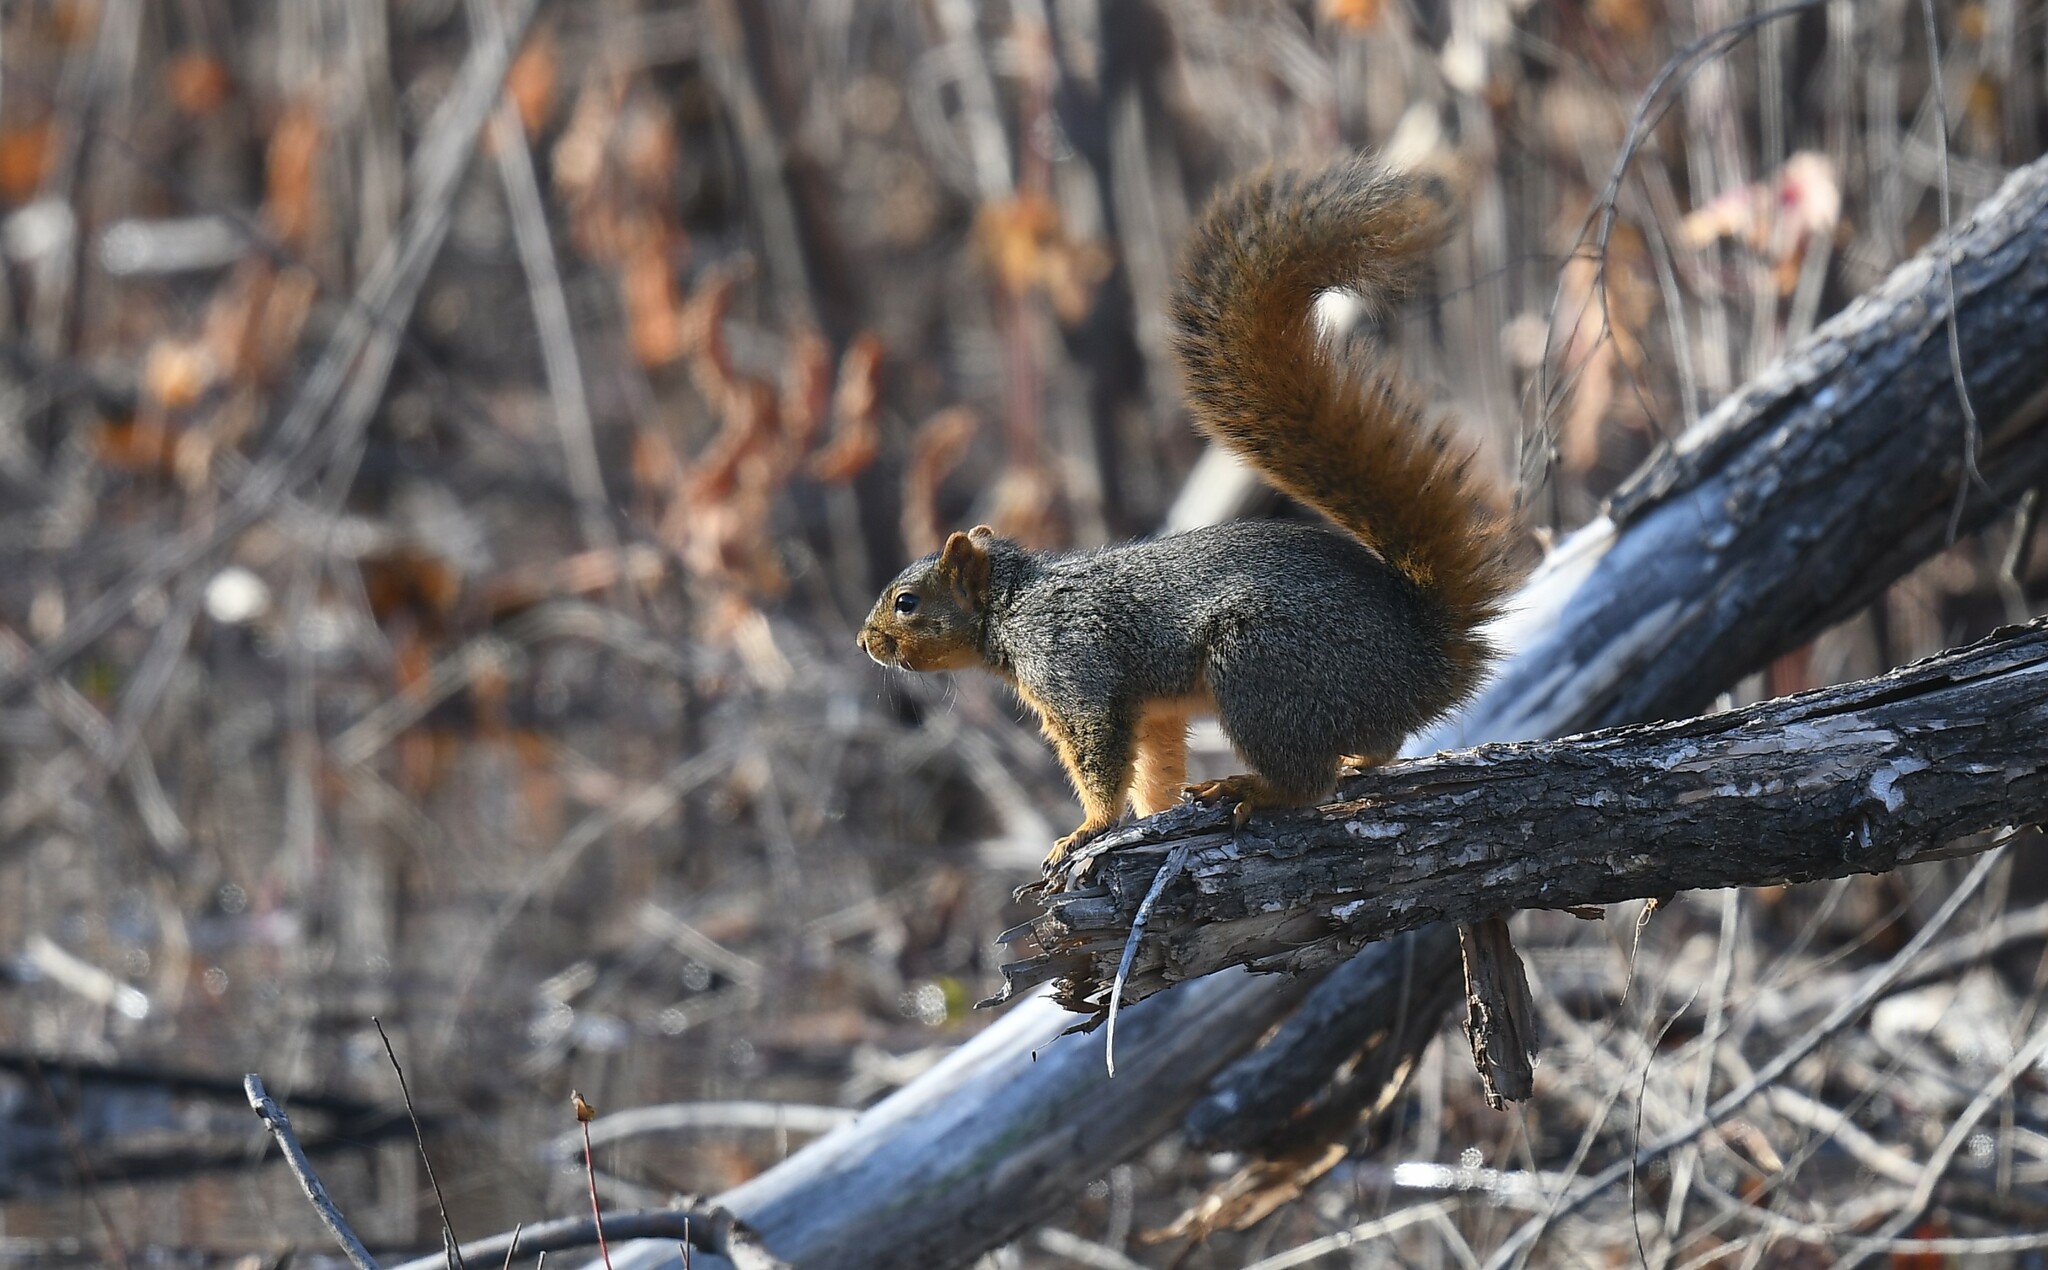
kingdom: Animalia
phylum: Chordata
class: Mammalia
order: Rodentia
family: Sciuridae
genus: Sciurus
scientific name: Sciurus niger
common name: Fox squirrel
